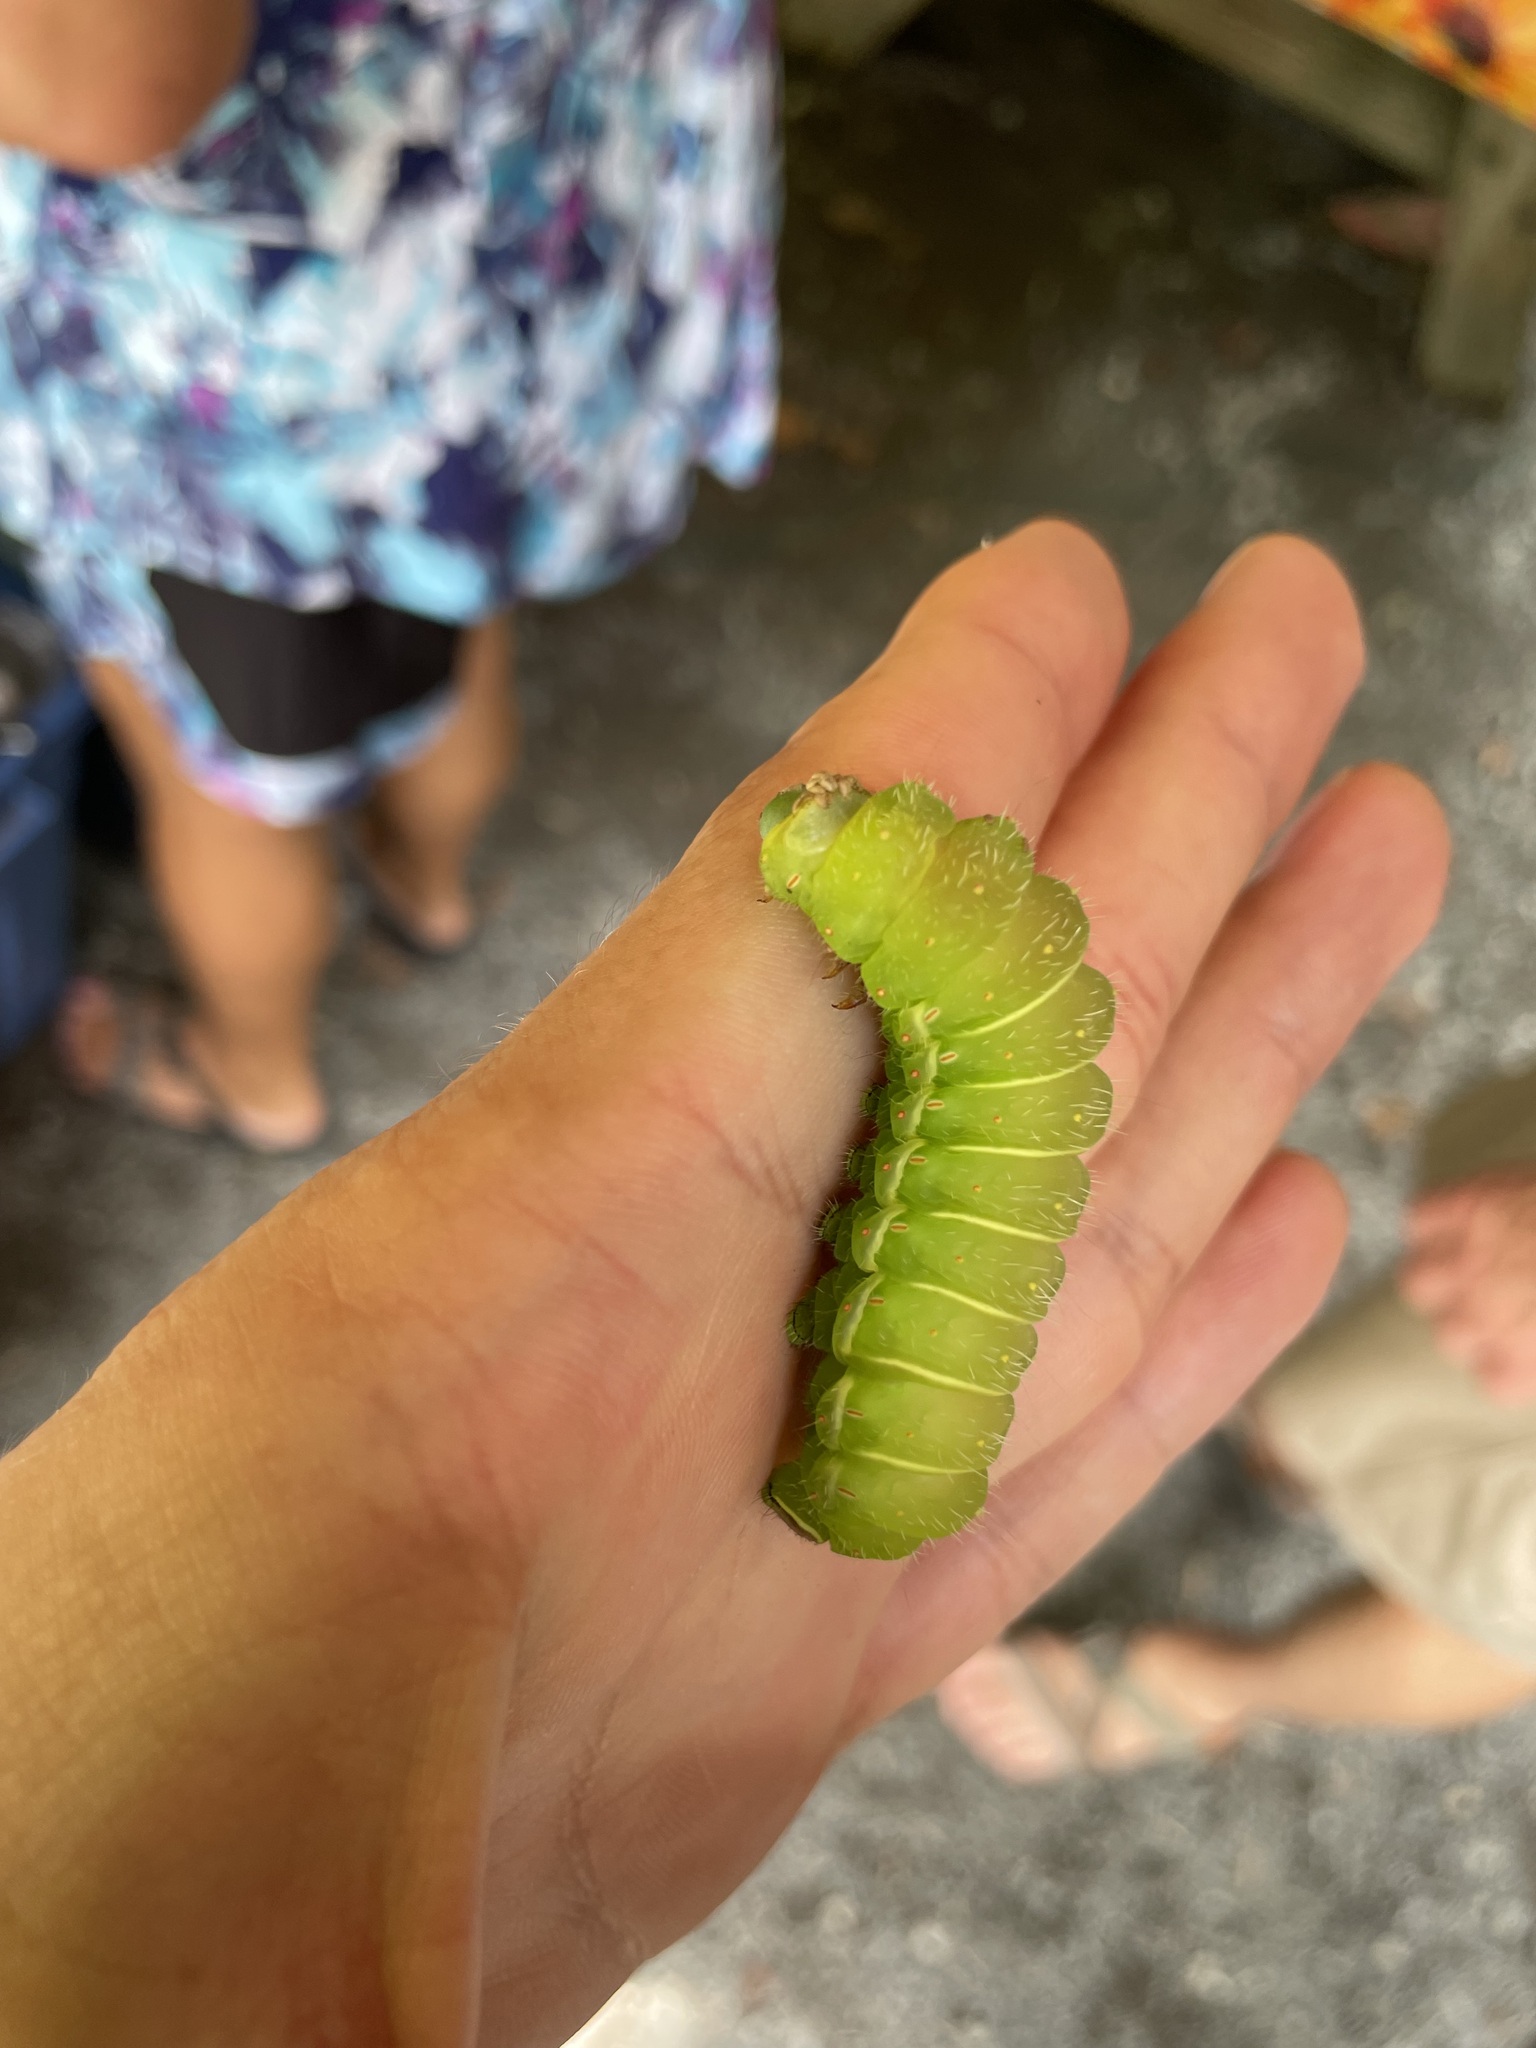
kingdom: Animalia
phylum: Arthropoda
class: Insecta
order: Lepidoptera
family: Saturniidae
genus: Actias
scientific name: Actias luna
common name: Luna moth
